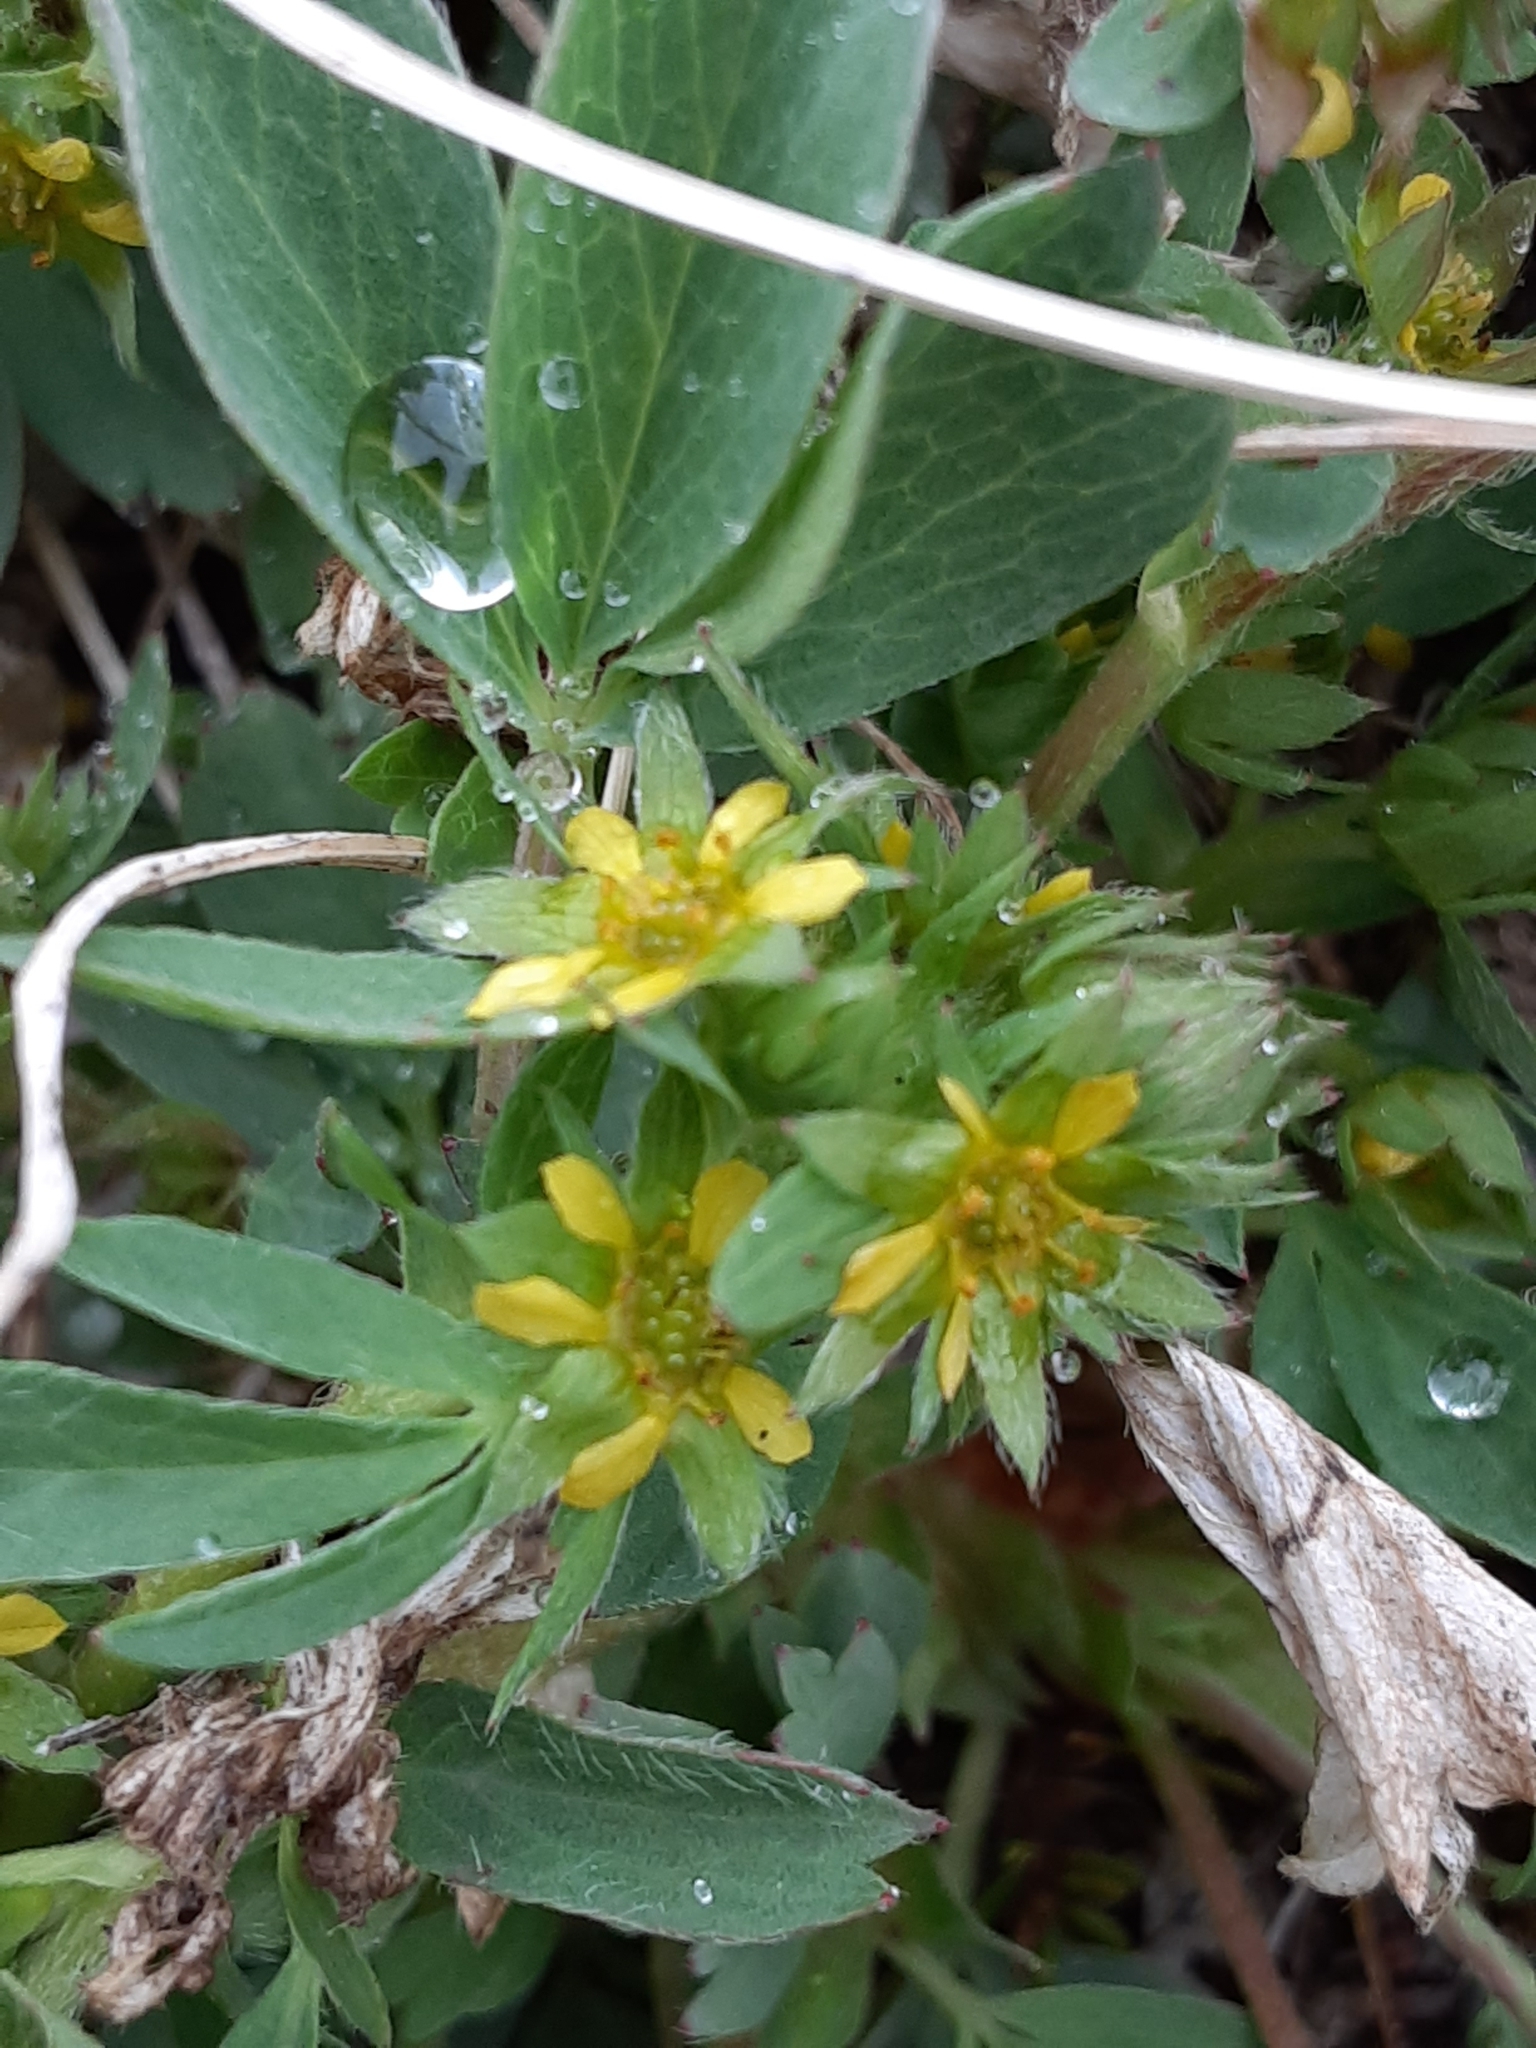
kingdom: Plantae
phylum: Tracheophyta
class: Magnoliopsida
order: Rosales
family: Rosaceae
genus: Sibbaldia
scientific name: Sibbaldia procumbens
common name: Creeping sibbaldia
